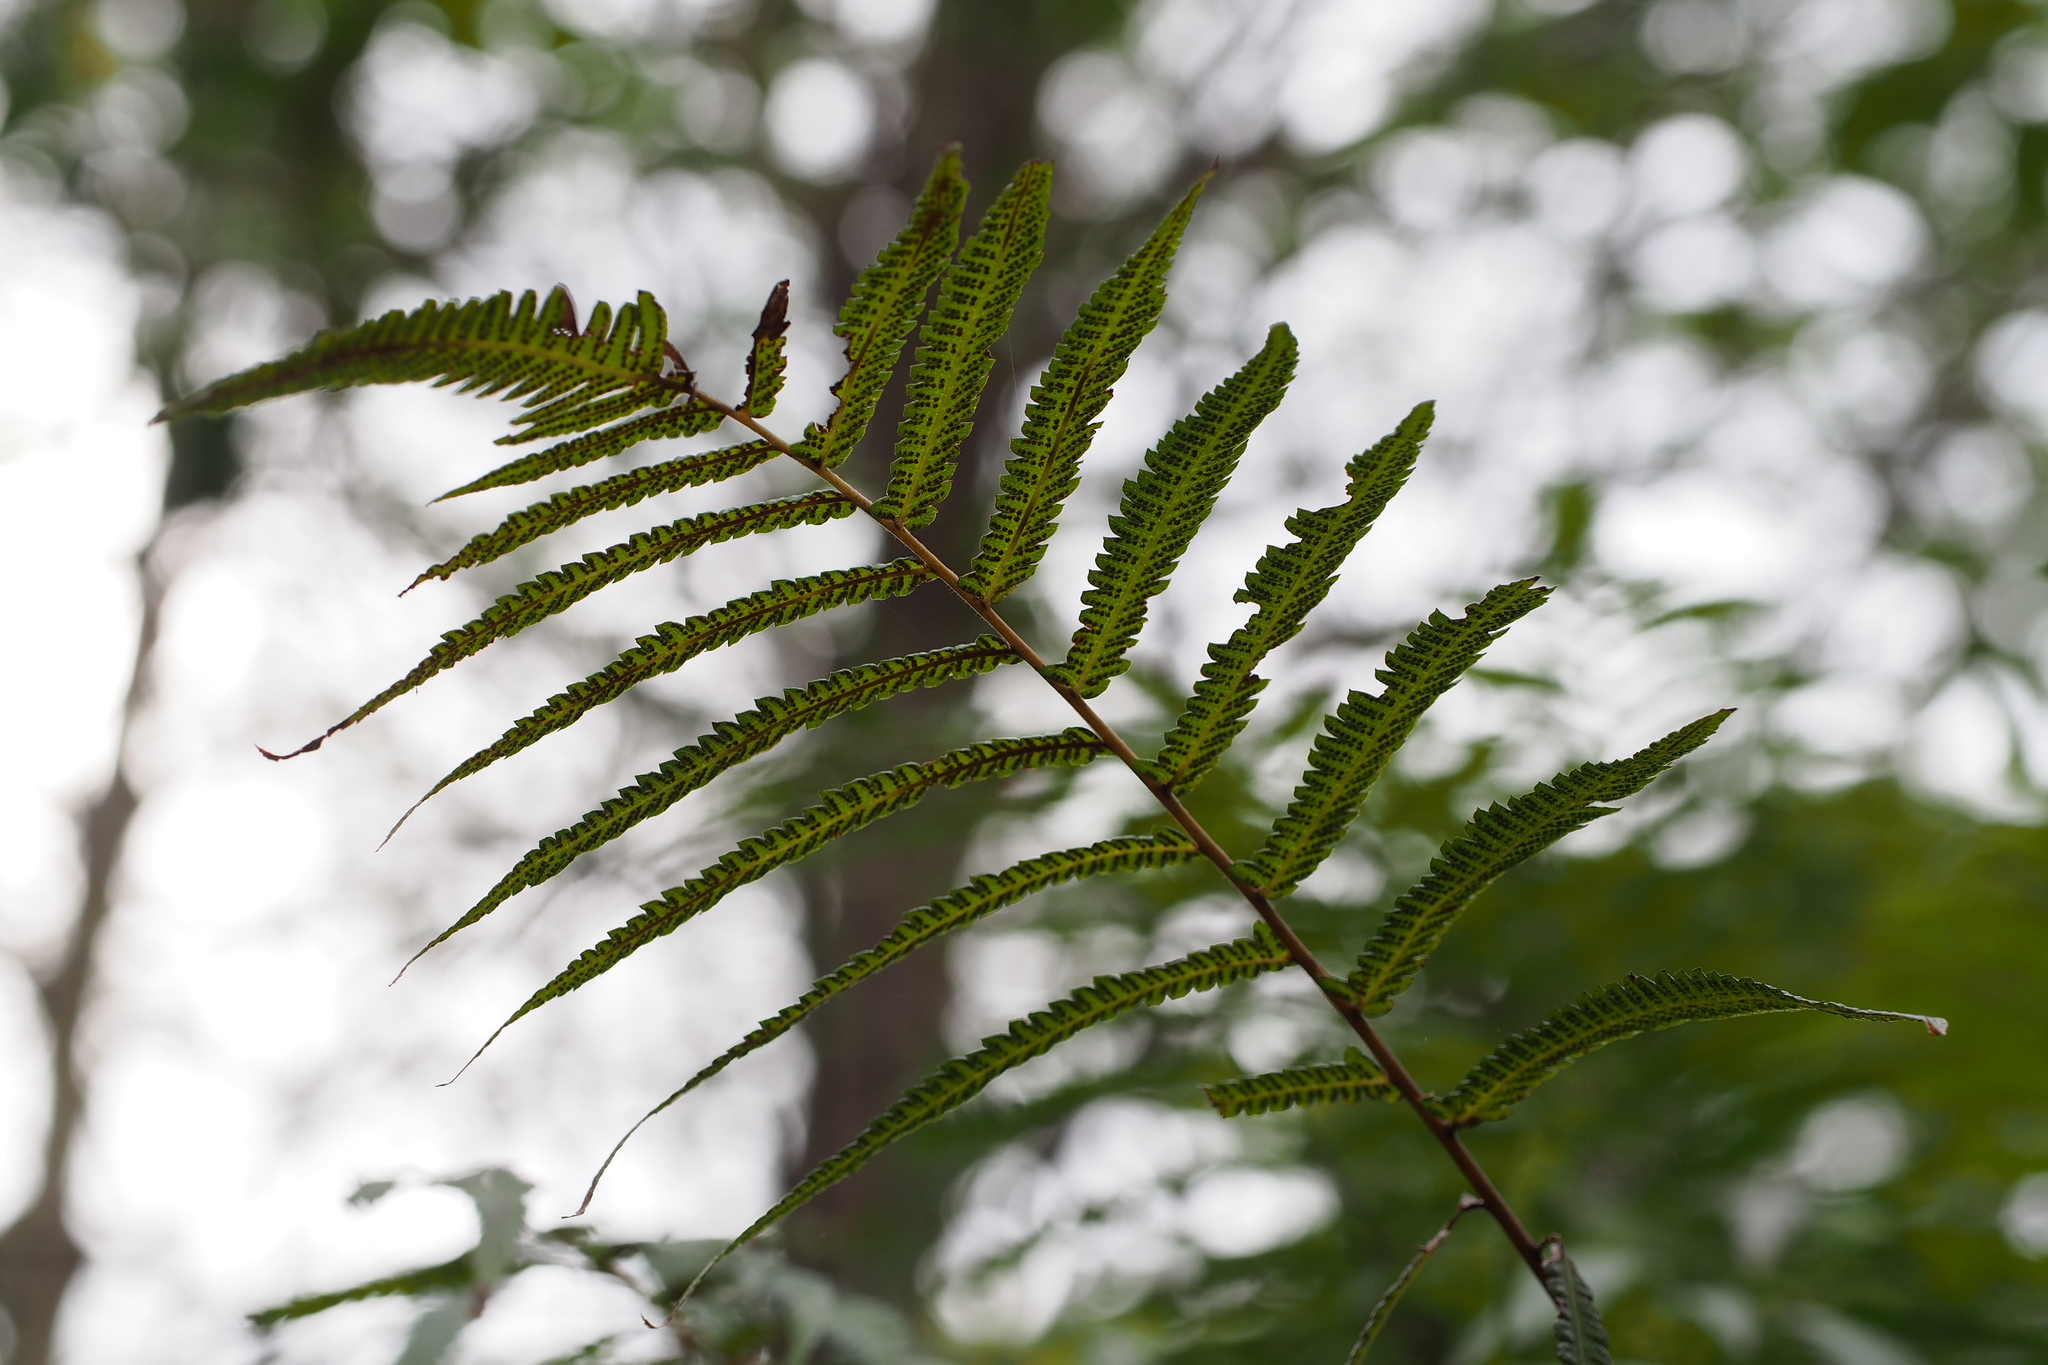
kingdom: Plantae
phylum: Tracheophyta
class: Polypodiopsida
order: Polypodiales
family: Thelypteridaceae
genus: Christella
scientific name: Christella acuminata
